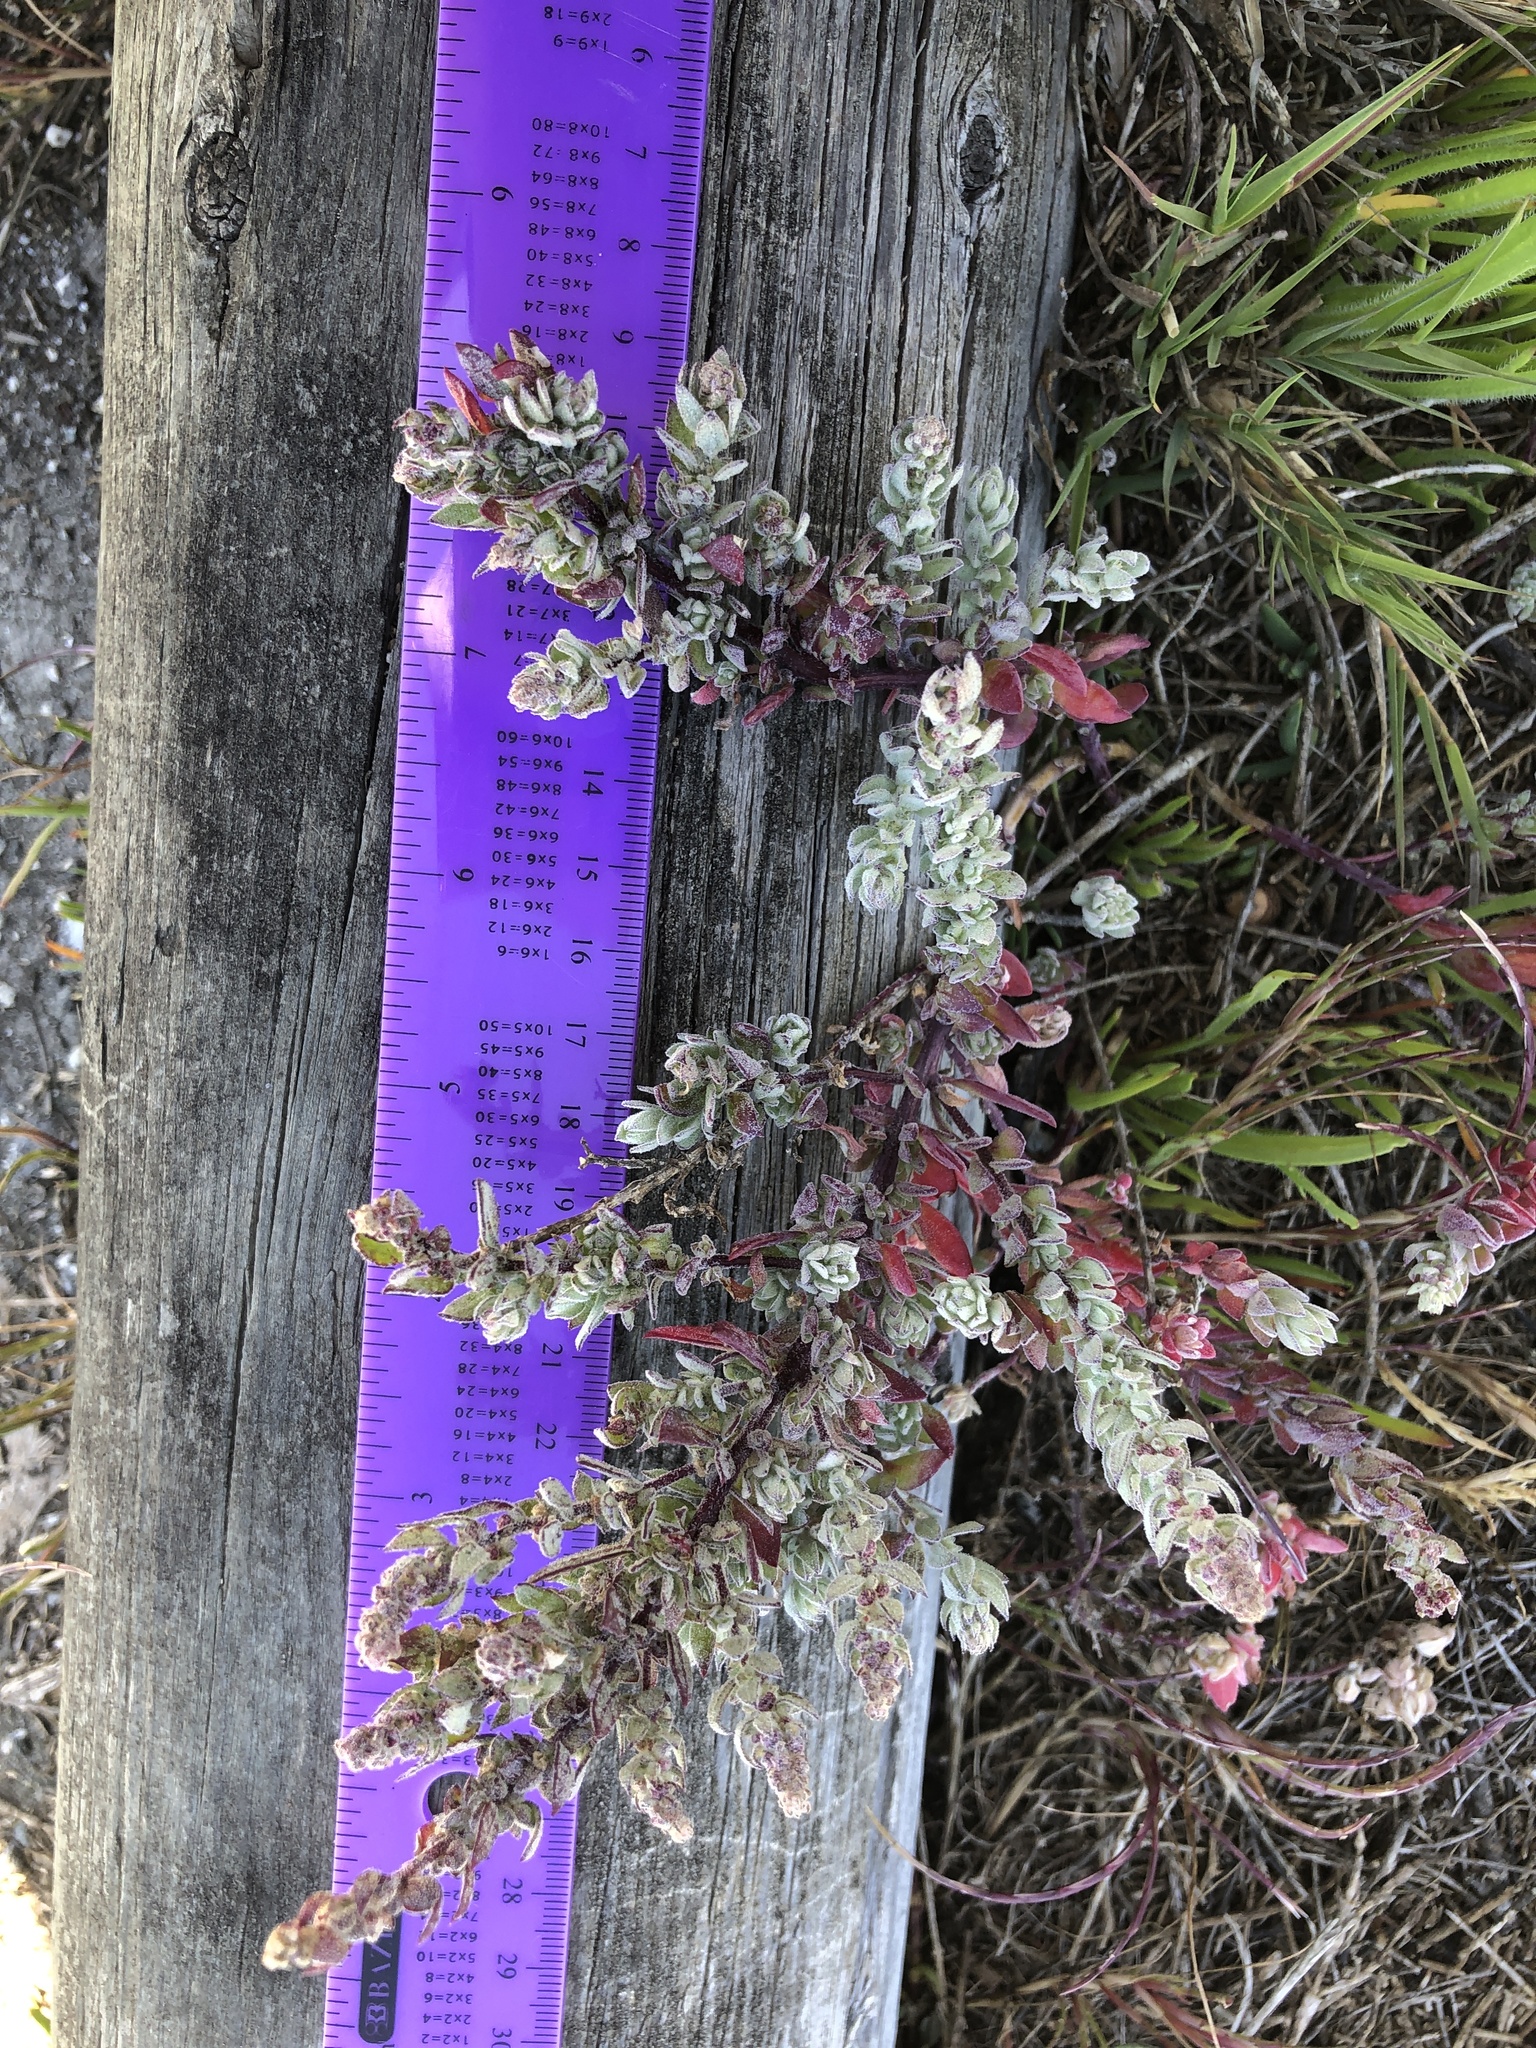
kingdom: Plantae
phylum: Tracheophyta
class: Magnoliopsida
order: Caryophyllales
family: Amaranthaceae
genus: Extriplex
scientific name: Extriplex californica
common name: California saltbush
